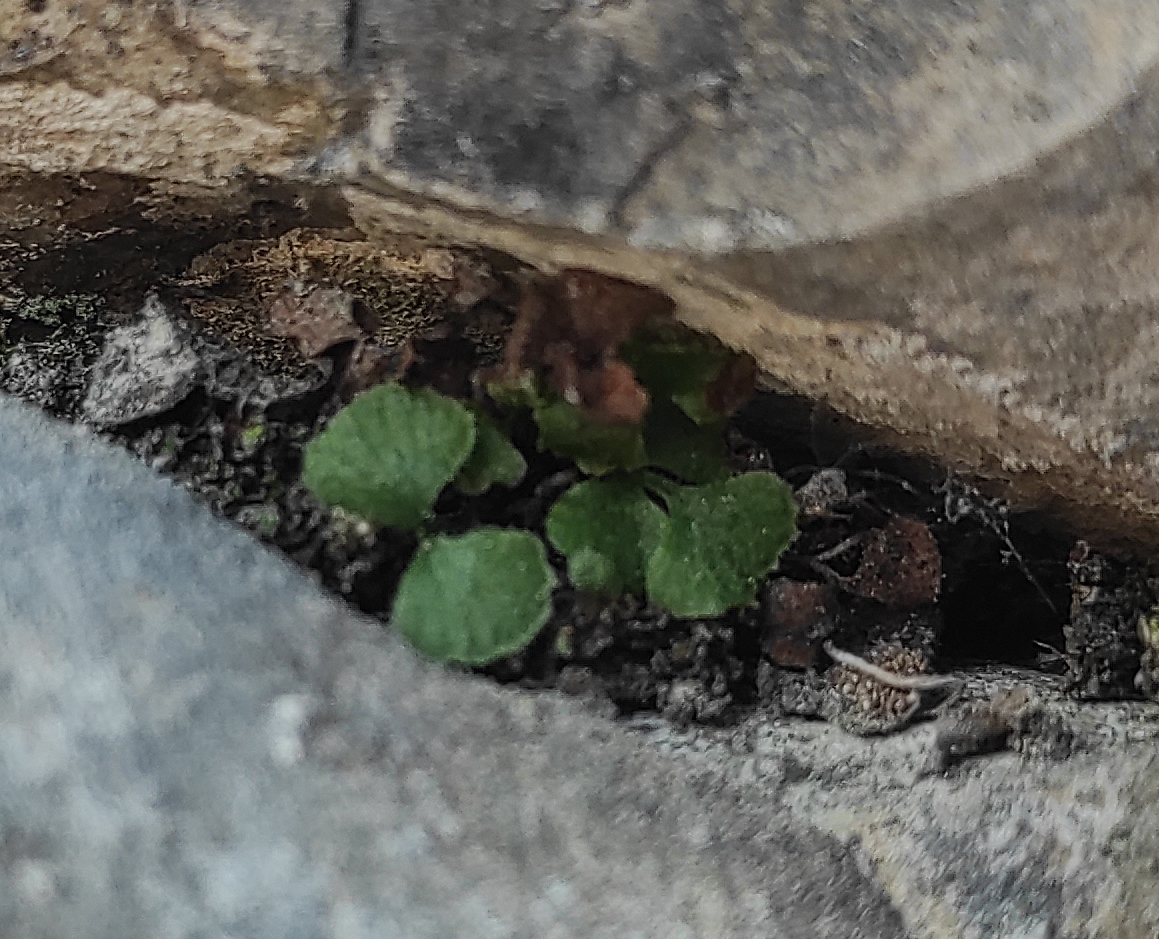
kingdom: Plantae
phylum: Tracheophyta
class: Polypodiopsida
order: Polypodiales
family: Aspleniaceae
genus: Asplenium
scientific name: Asplenium ruta-muraria
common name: Wall-rue
